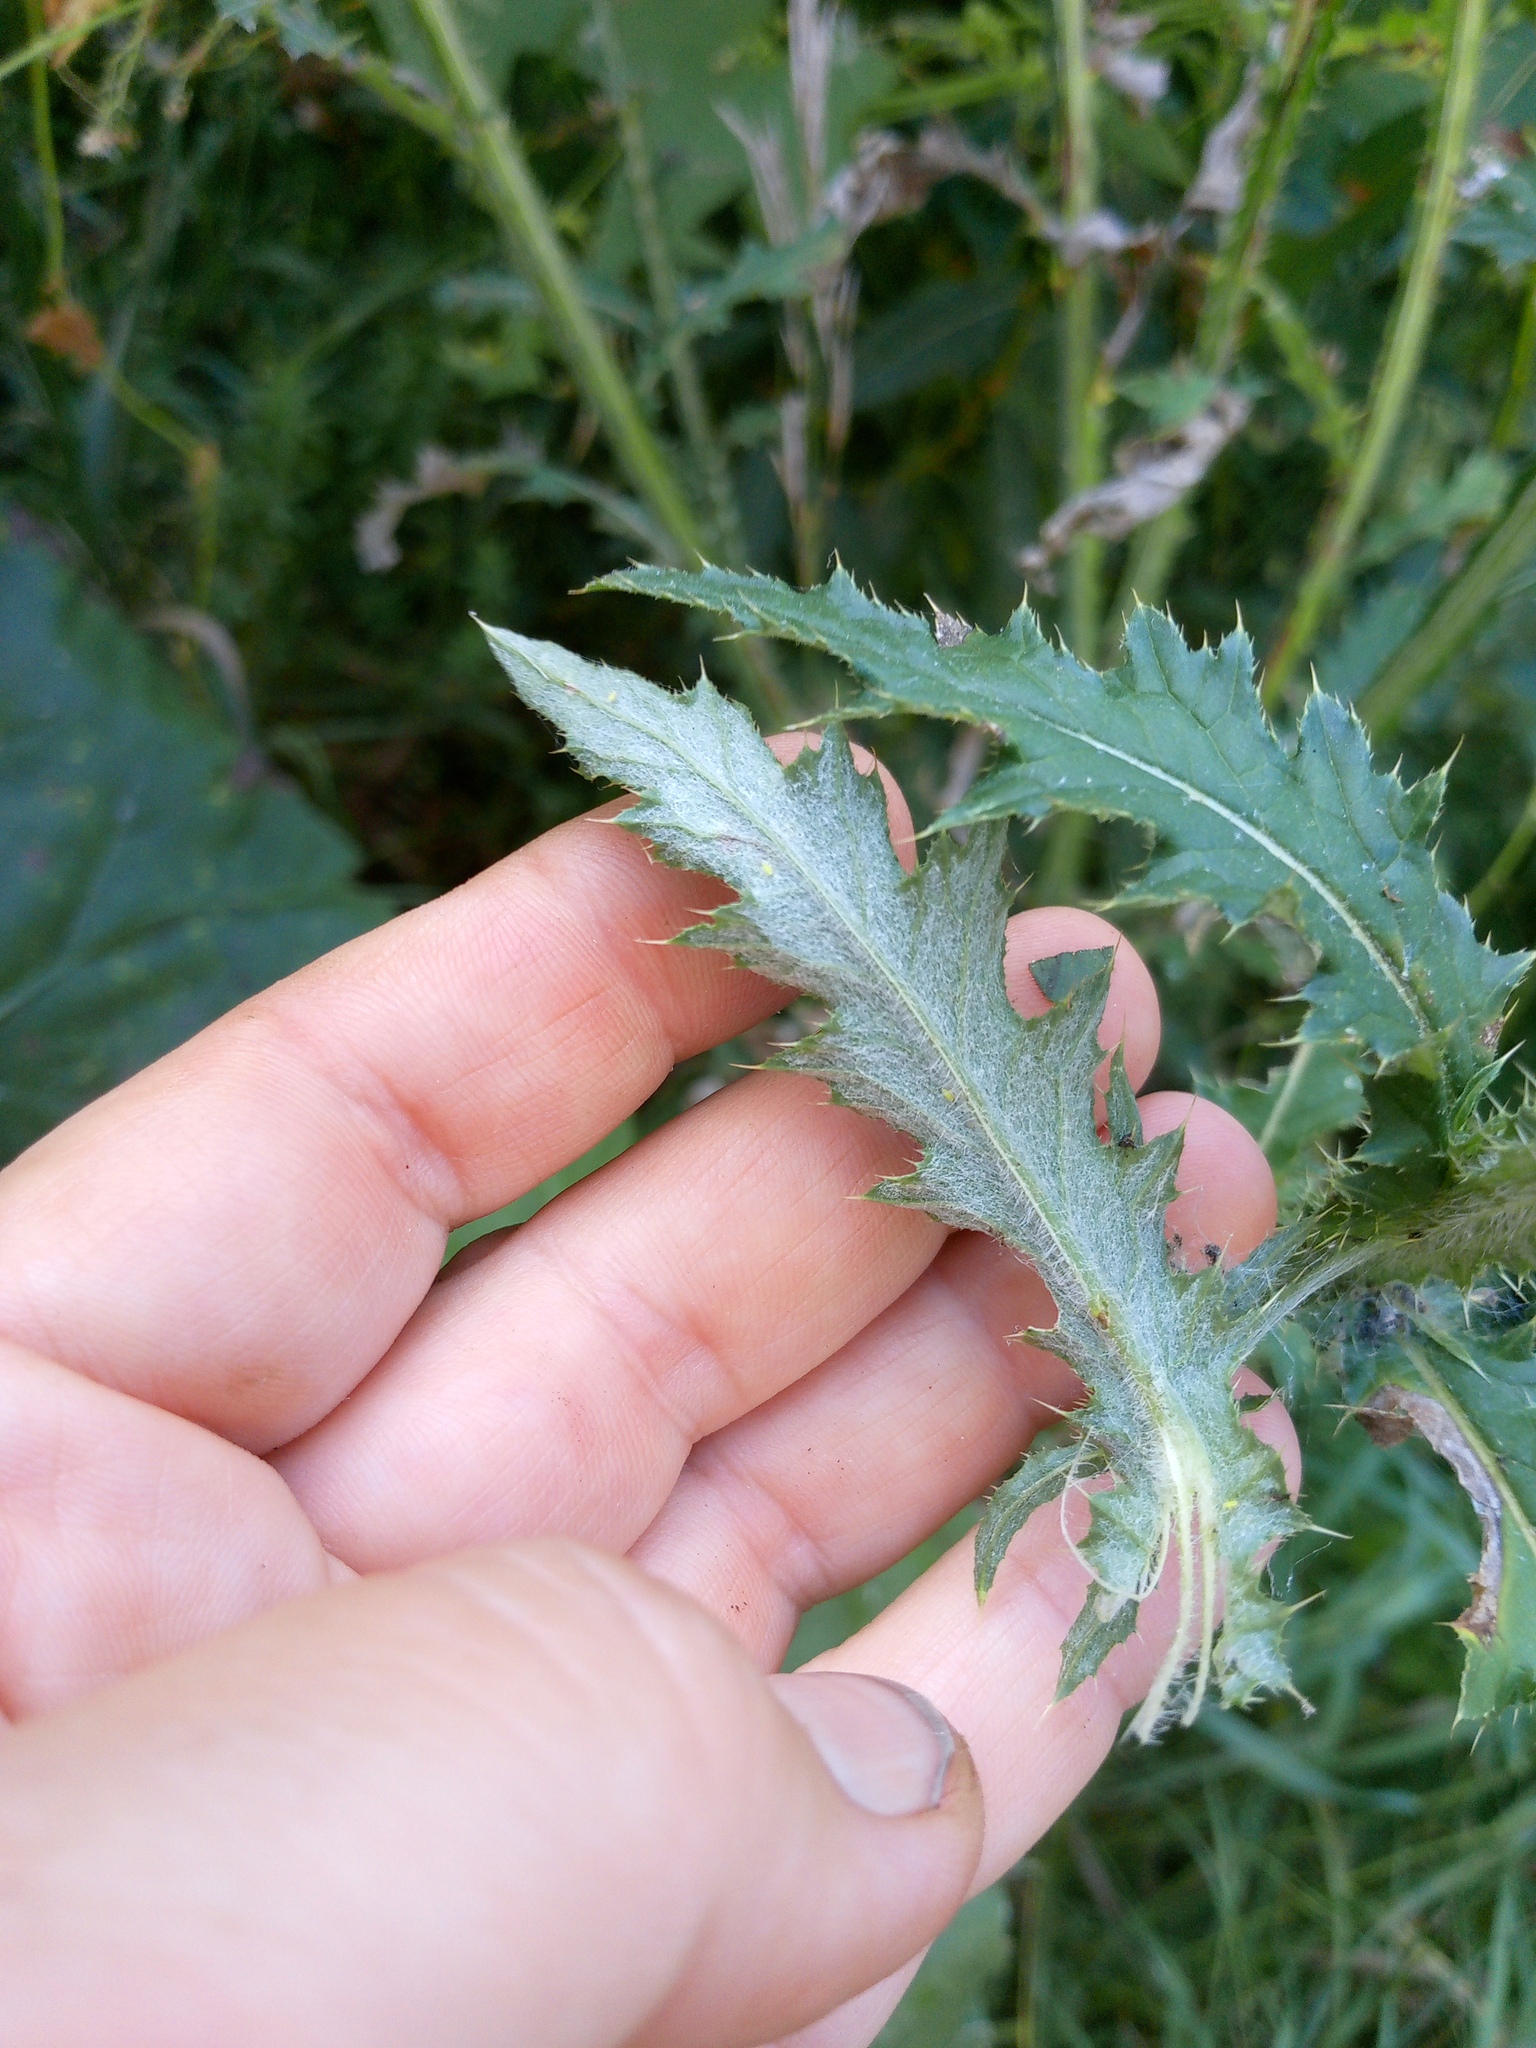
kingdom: Plantae
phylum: Tracheophyta
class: Magnoliopsida
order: Asterales
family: Asteraceae
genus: Carduus
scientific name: Carduus crispus
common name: Welted thistle
